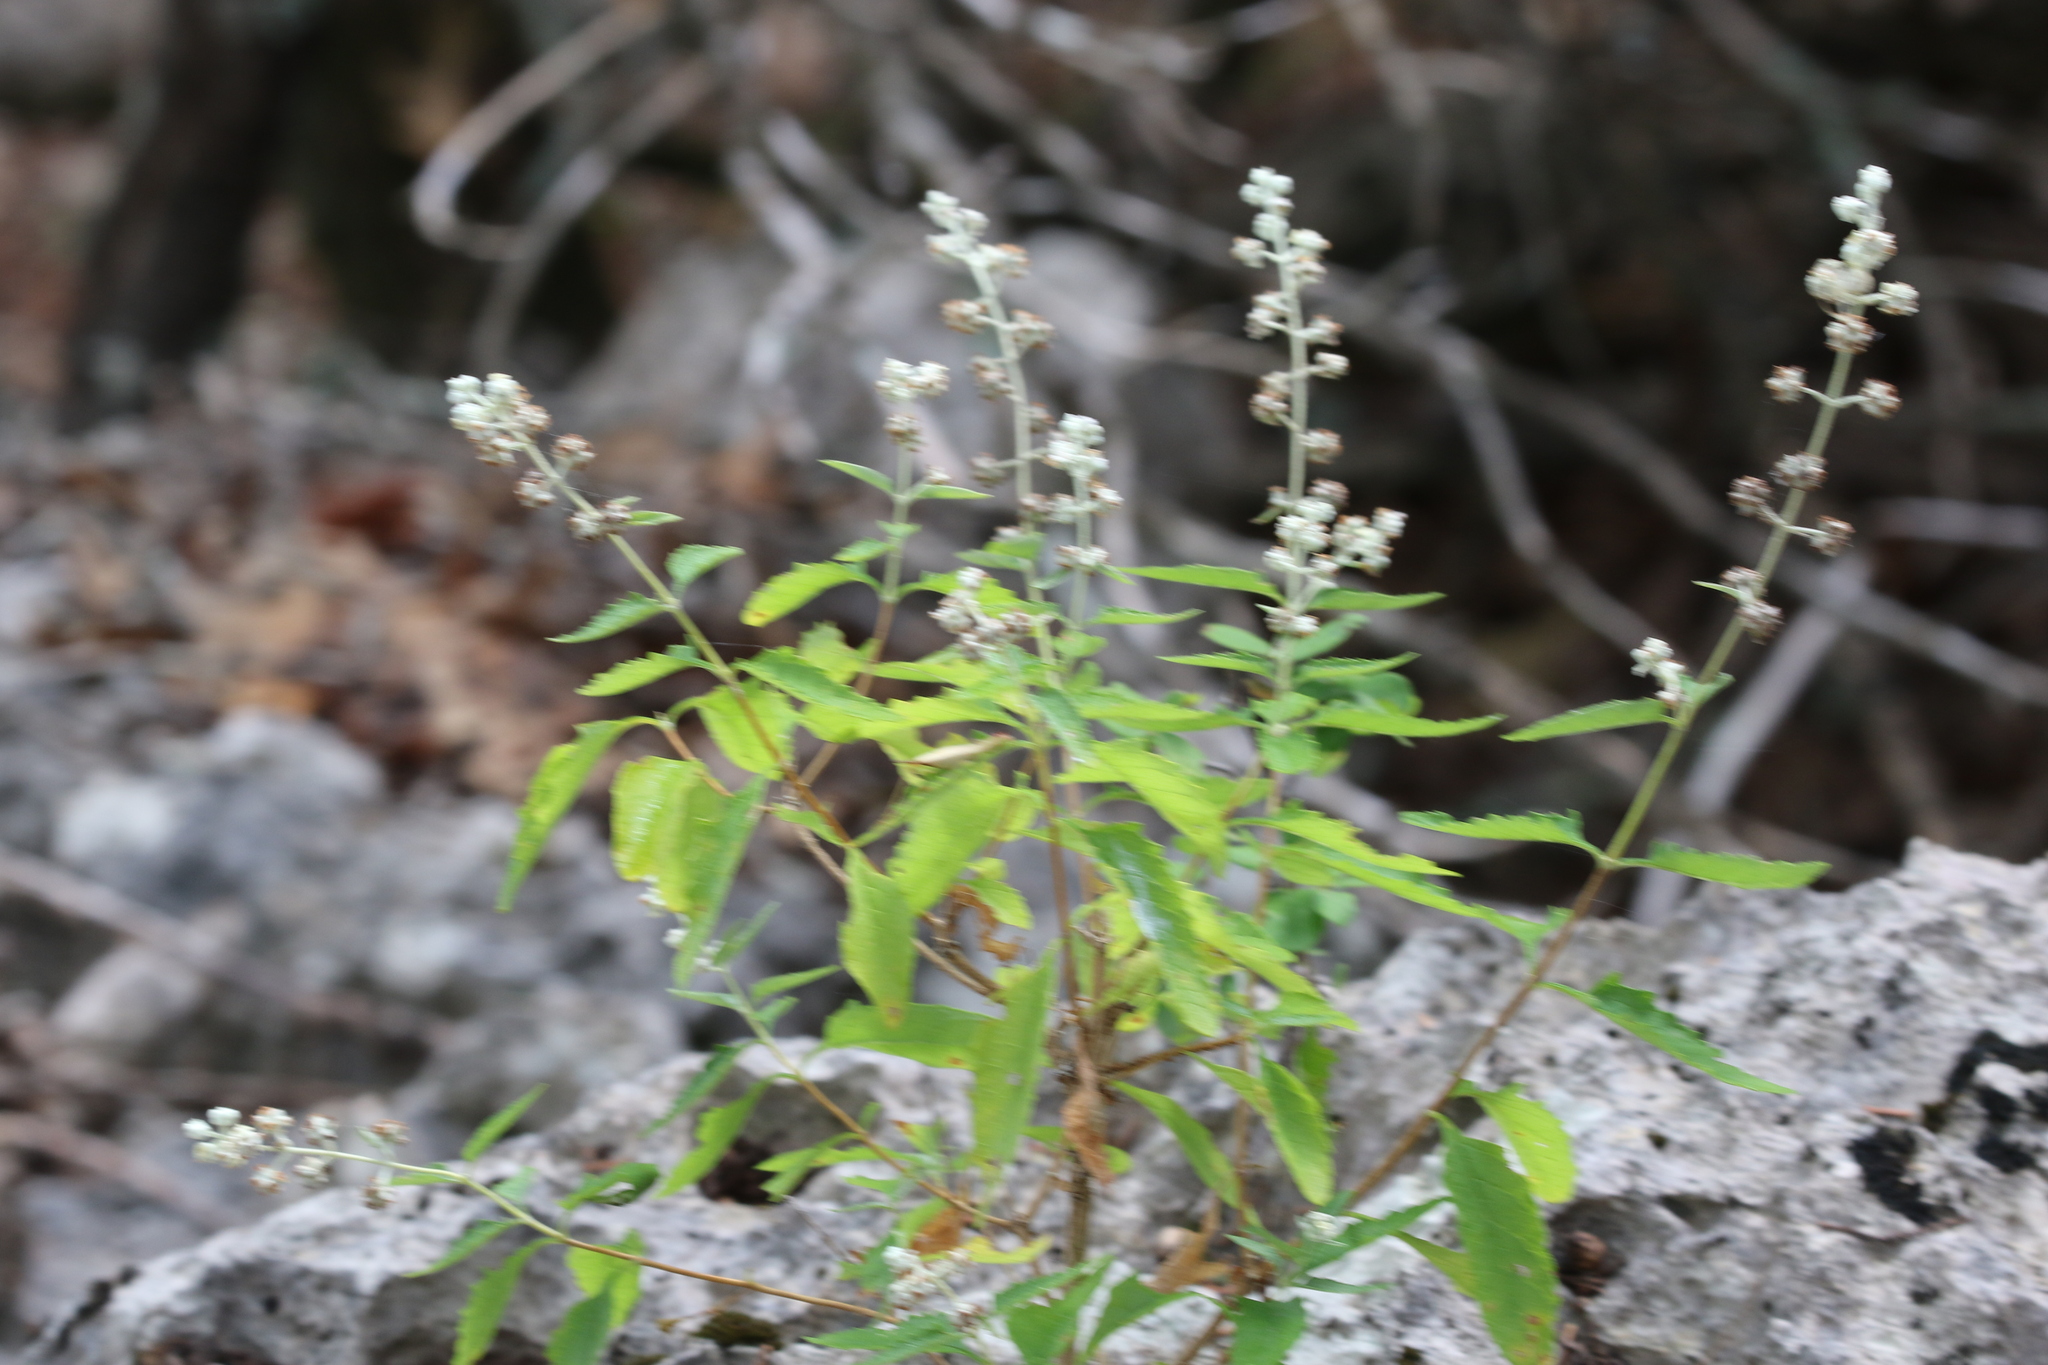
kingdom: Plantae
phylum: Tracheophyta
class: Magnoliopsida
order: Lamiales
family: Scrophulariaceae
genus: Buddleja
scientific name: Buddleja racemosa
